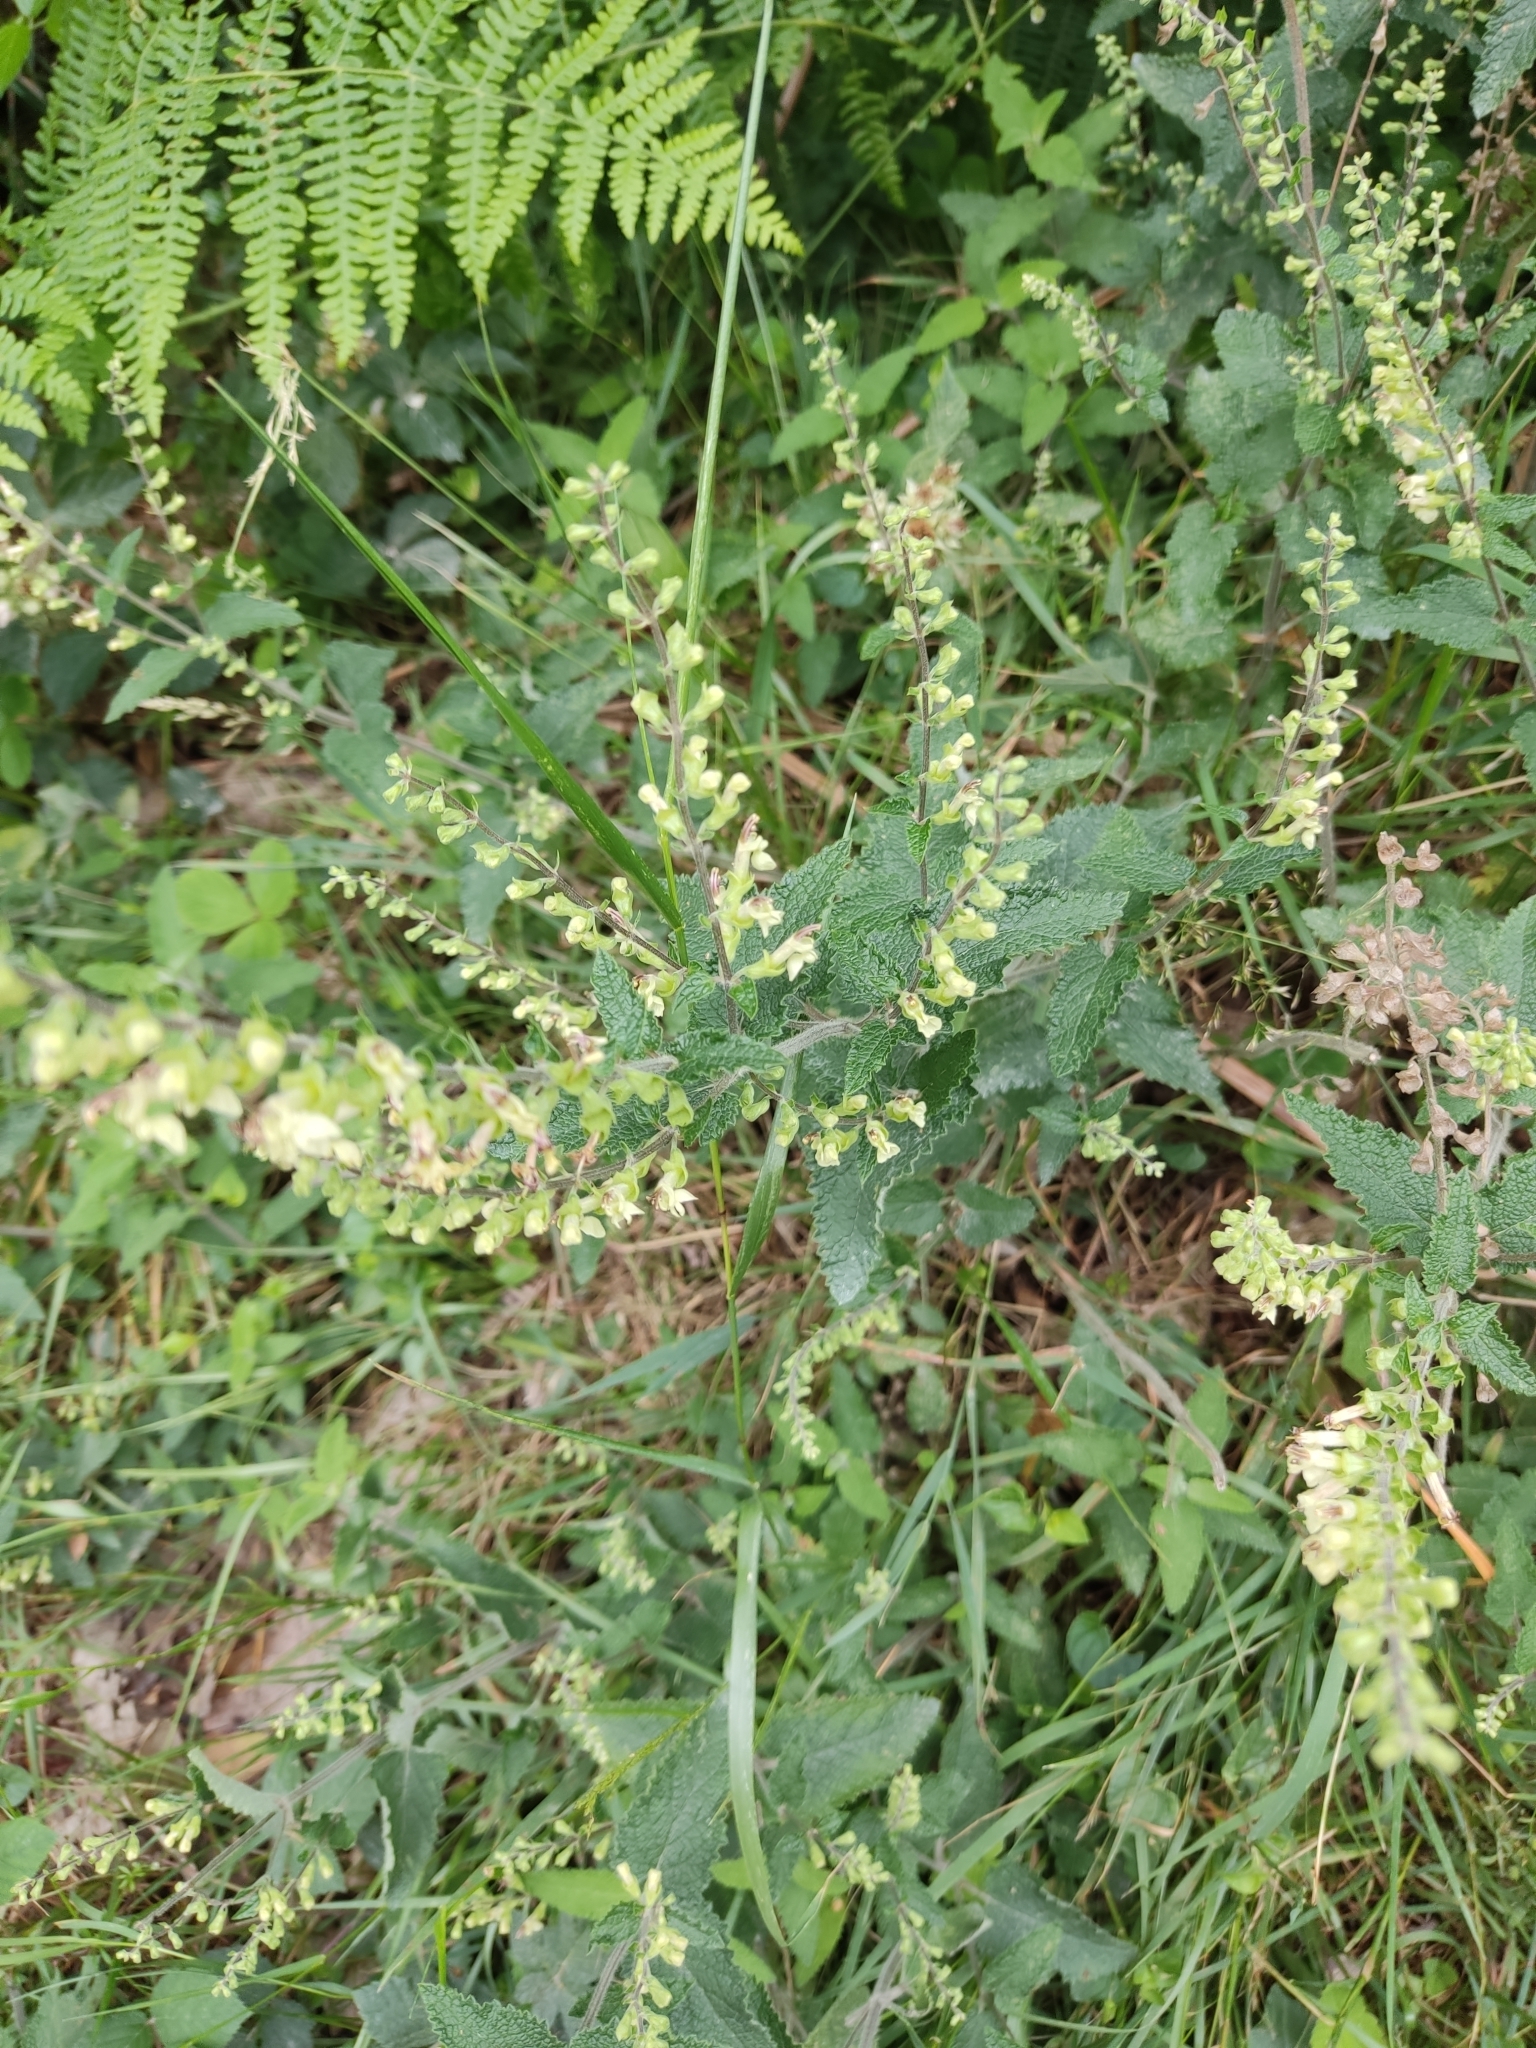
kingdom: Plantae
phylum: Tracheophyta
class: Magnoliopsida
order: Lamiales
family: Lamiaceae
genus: Teucrium
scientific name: Teucrium scorodonia
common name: Woodland germander
